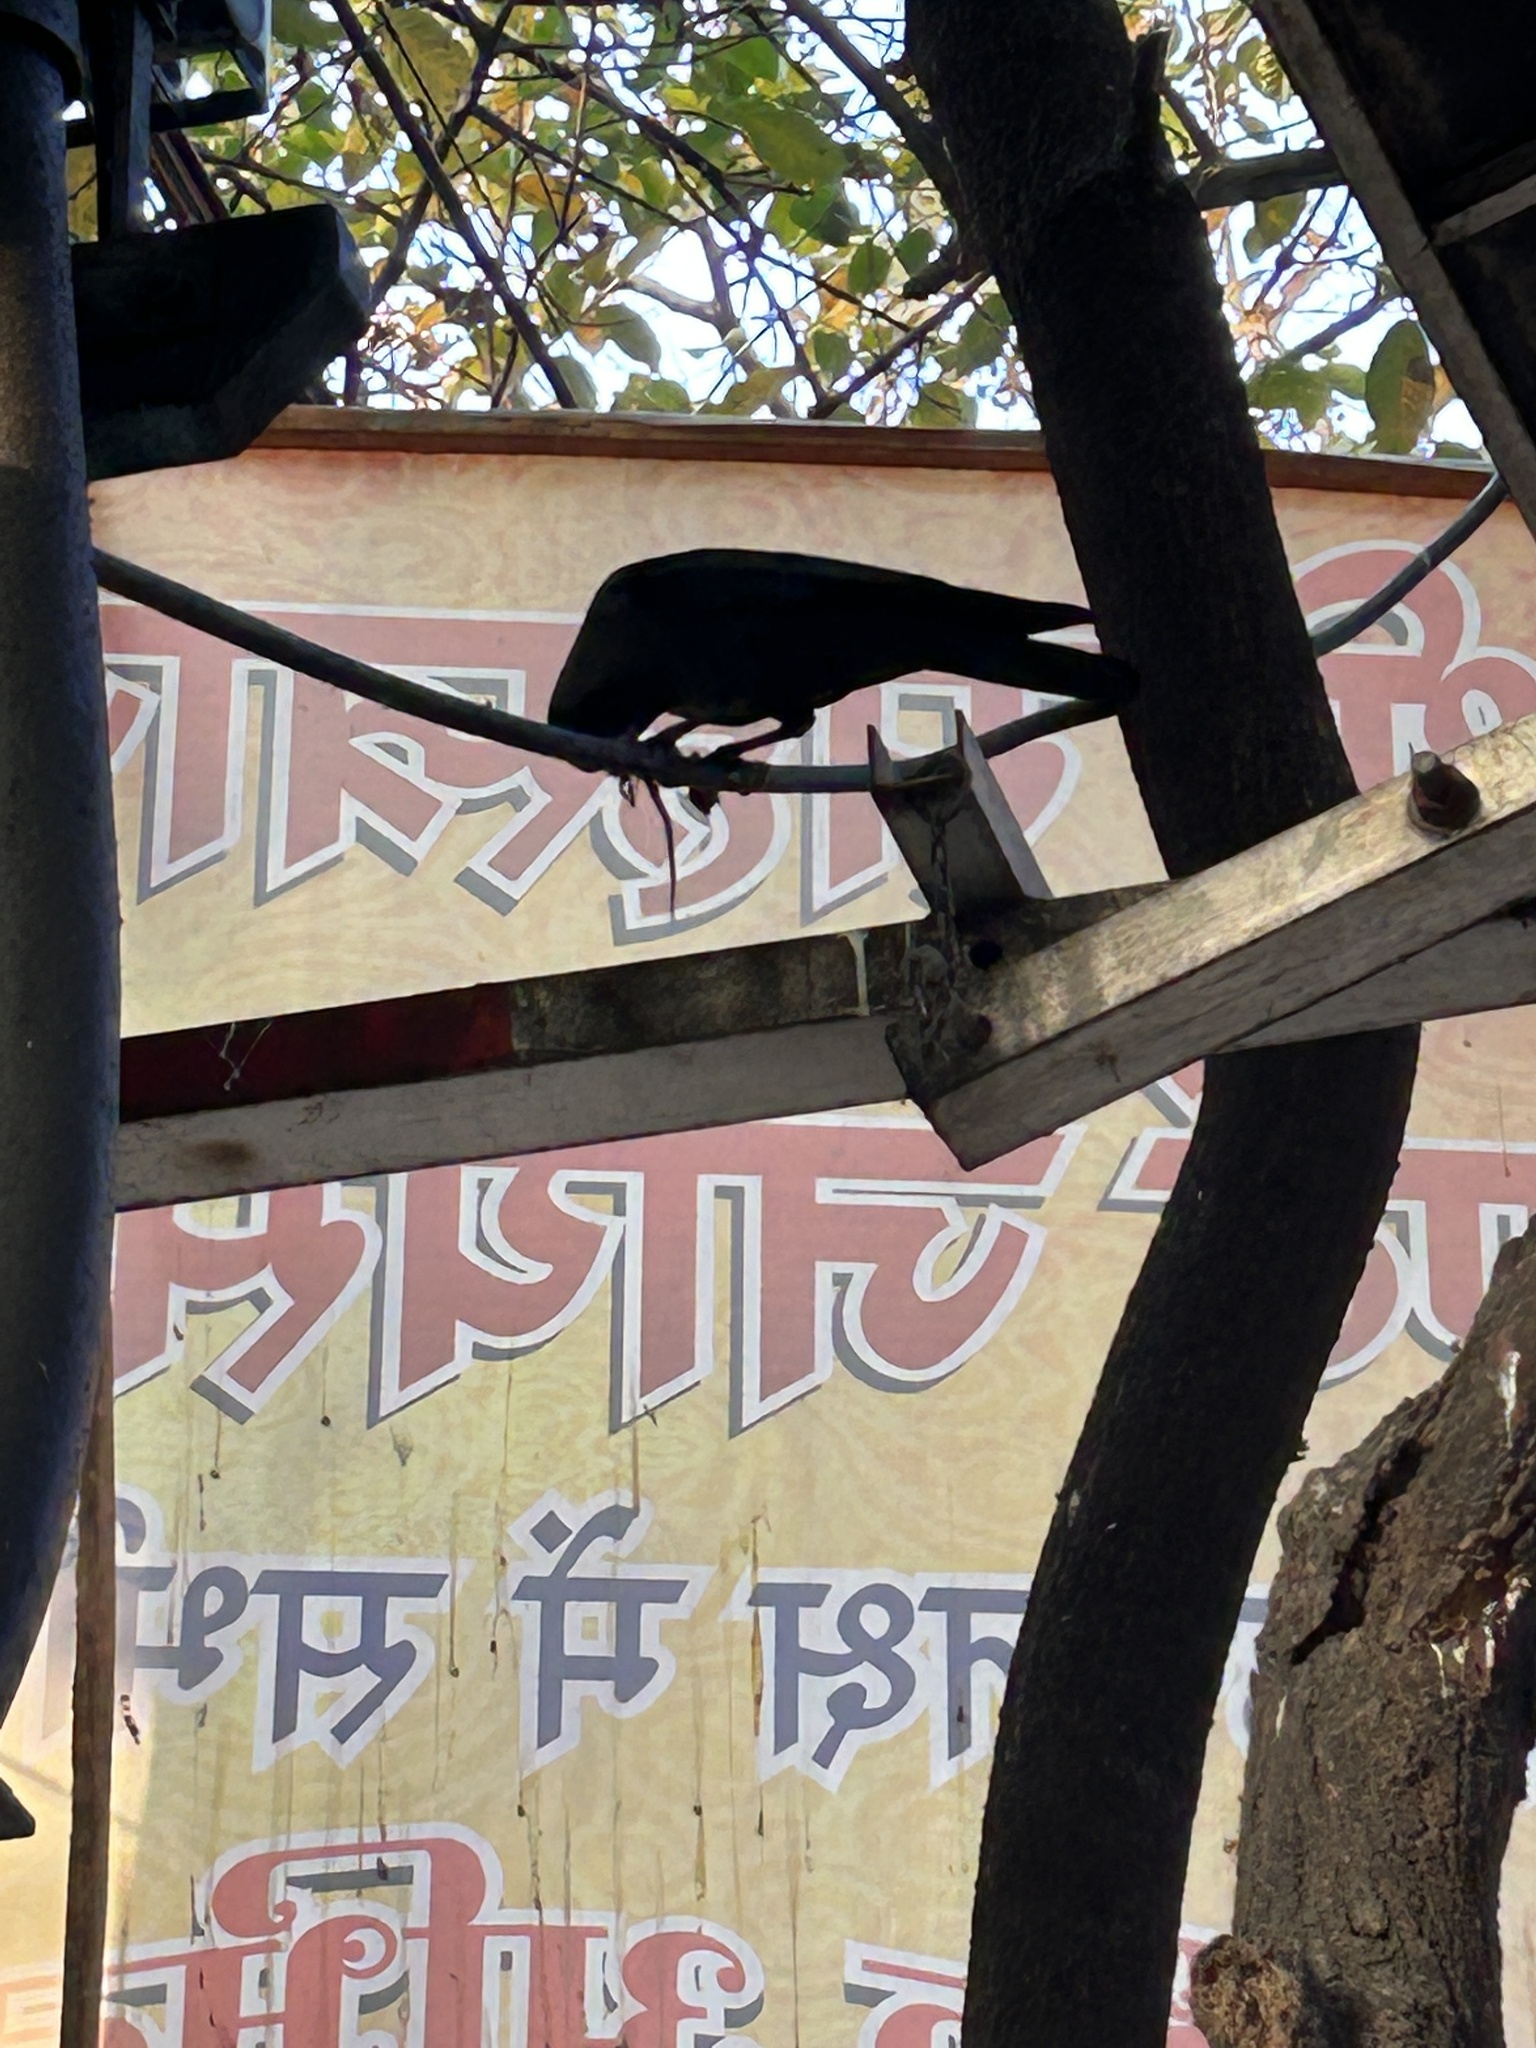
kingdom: Animalia
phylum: Chordata
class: Aves
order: Passeriformes
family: Corvidae
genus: Corvus
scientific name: Corvus splendens
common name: House crow
